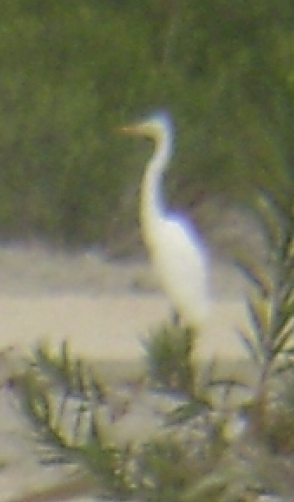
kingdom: Animalia
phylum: Chordata
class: Aves
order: Pelecaniformes
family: Ardeidae
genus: Ardea
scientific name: Ardea alba
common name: Great egret
